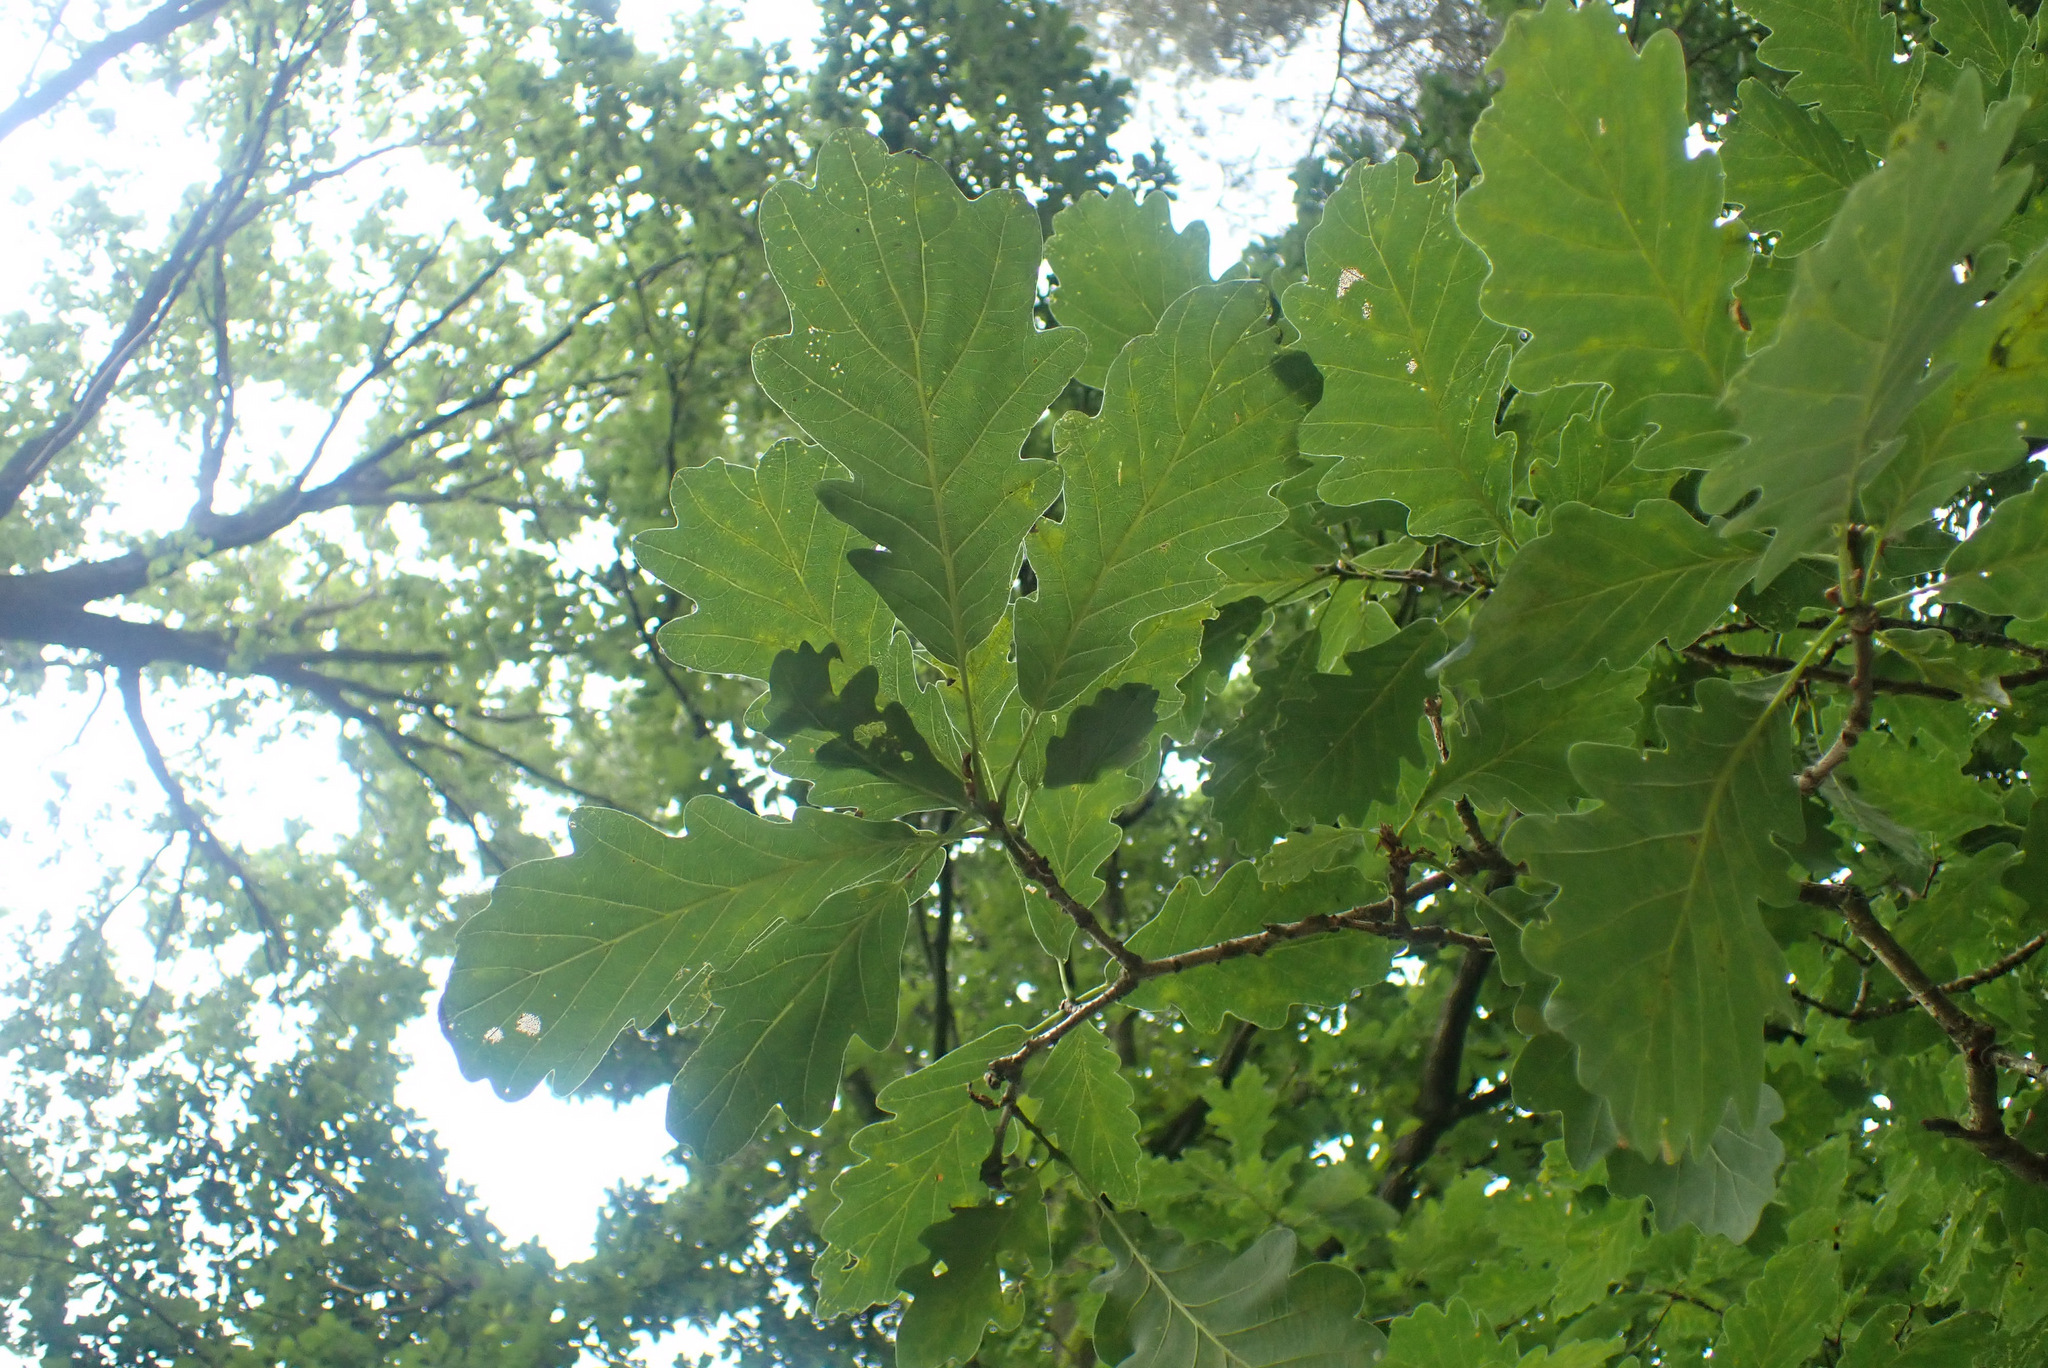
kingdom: Plantae
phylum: Tracheophyta
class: Magnoliopsida
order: Fagales
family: Fagaceae
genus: Quercus
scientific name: Quercus petraea
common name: Sessile oak
